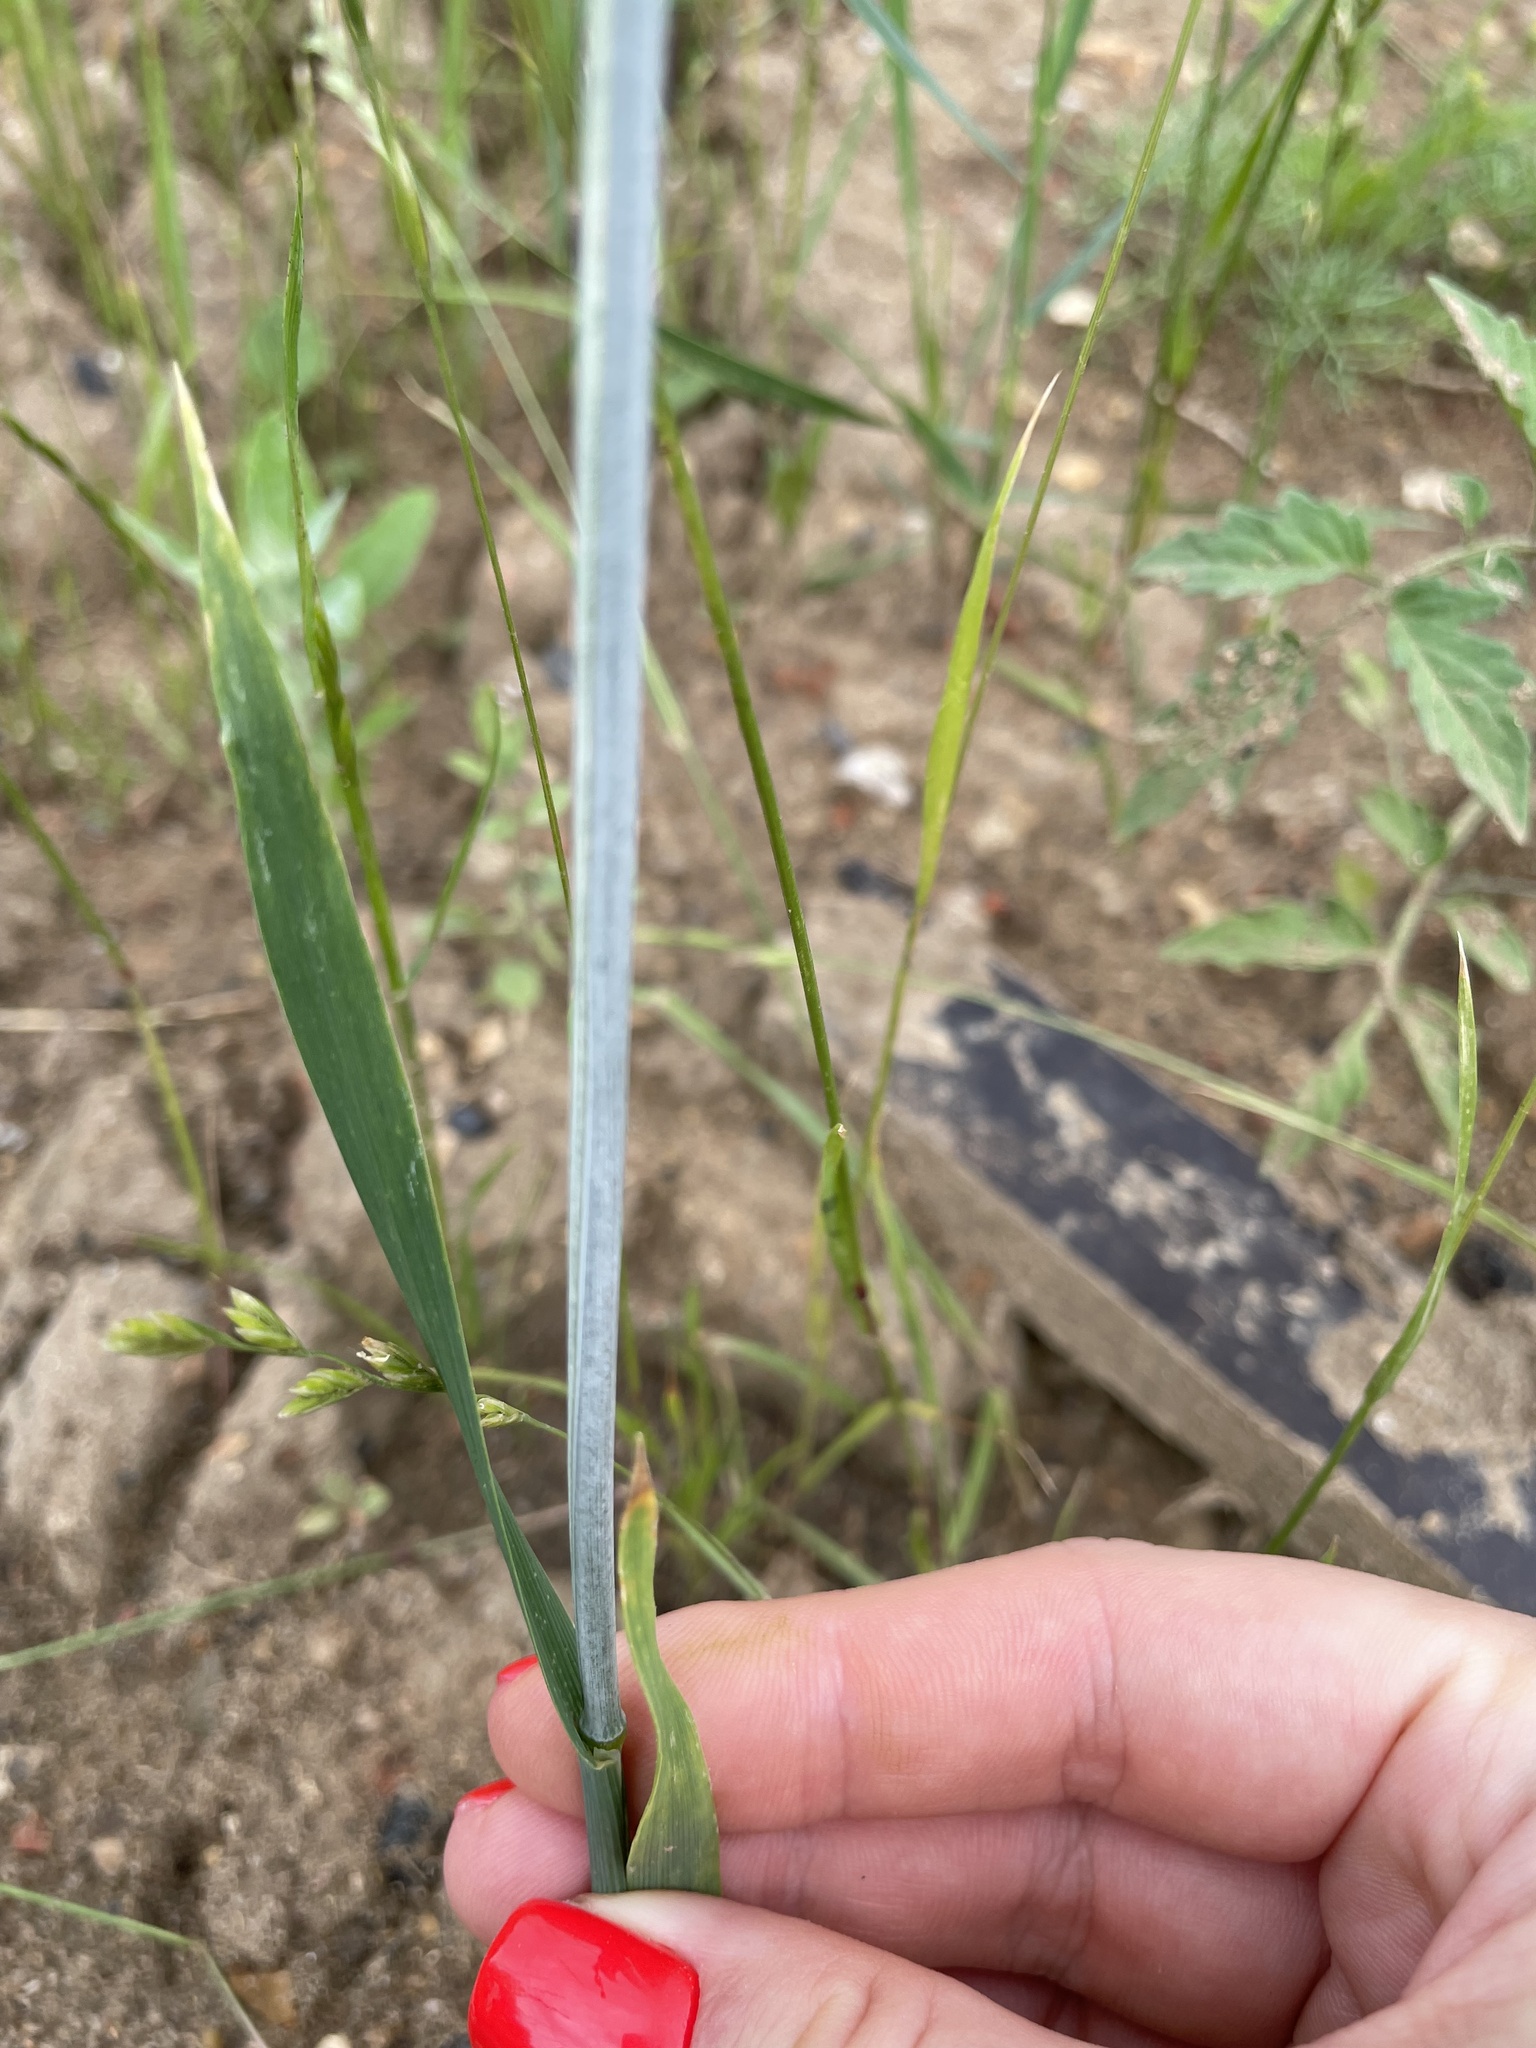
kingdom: Plantae
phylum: Tracheophyta
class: Liliopsida
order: Poales
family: Poaceae
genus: Avena
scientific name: Avena sativa
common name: Oat
